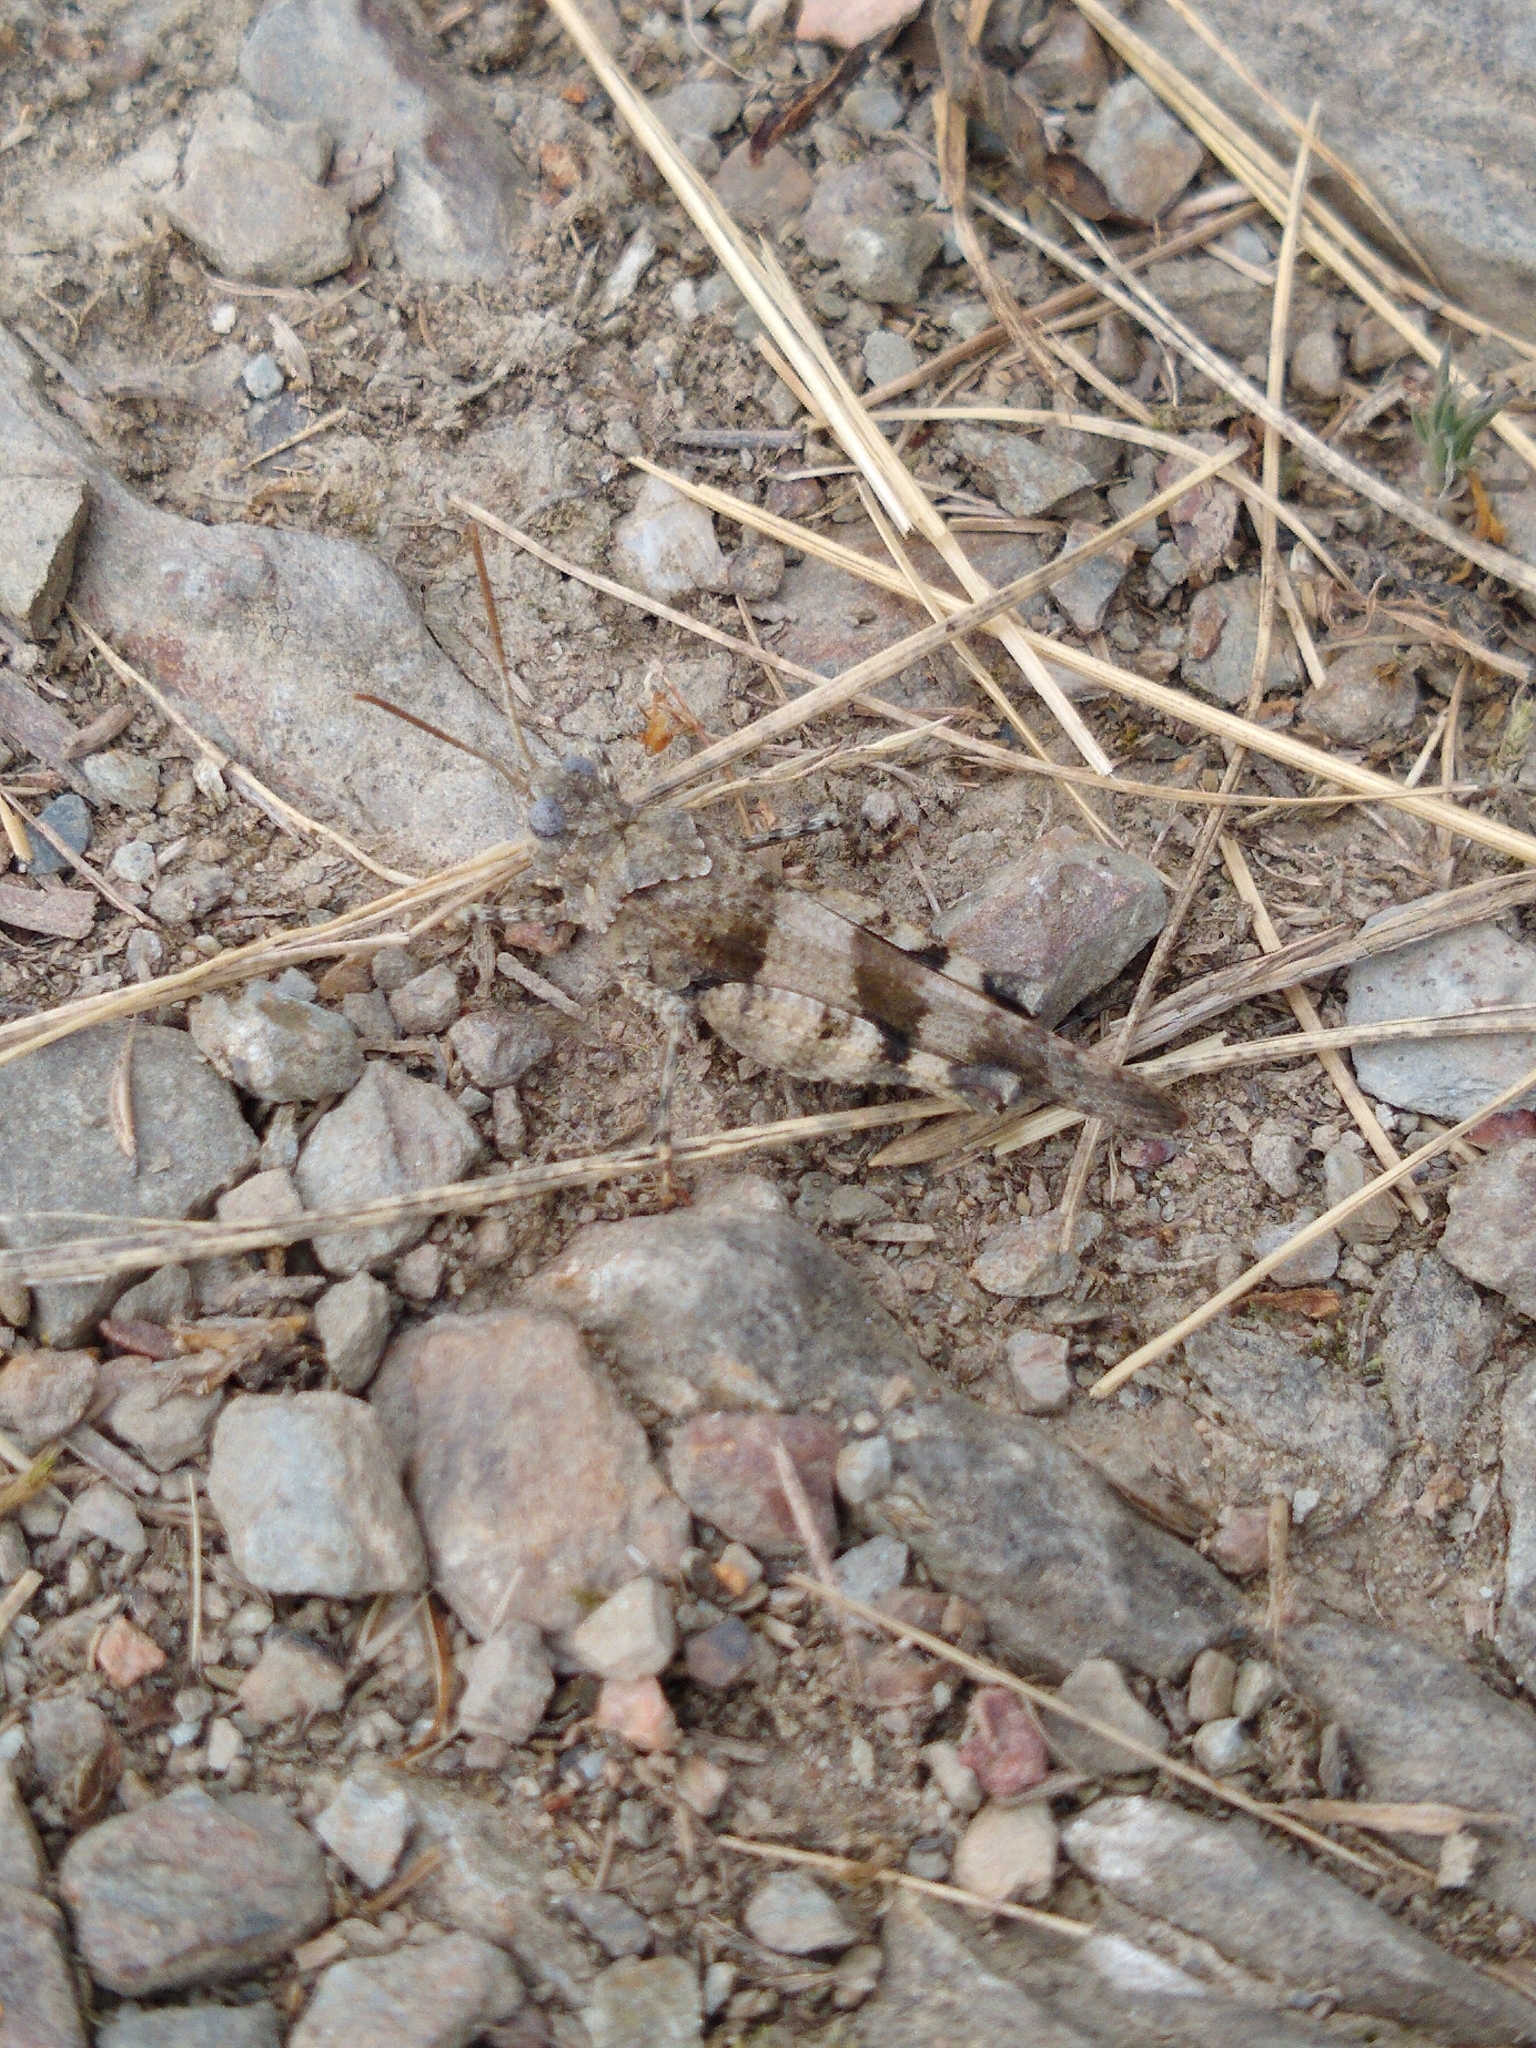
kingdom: Animalia
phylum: Arthropoda
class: Insecta
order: Orthoptera
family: Acrididae
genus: Oedipoda
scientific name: Oedipoda caerulescens
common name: Blue-winged grasshopper
